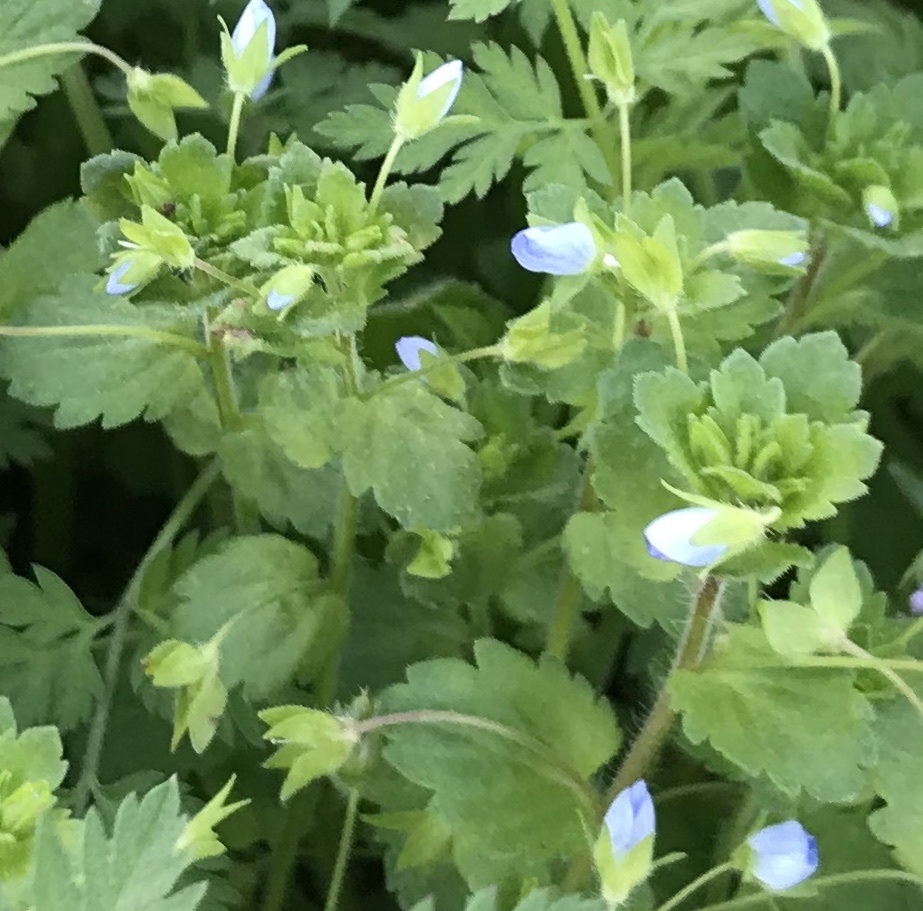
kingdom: Plantae
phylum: Tracheophyta
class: Magnoliopsida
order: Lamiales
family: Plantaginaceae
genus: Veronica
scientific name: Veronica persica
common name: Common field-speedwell
